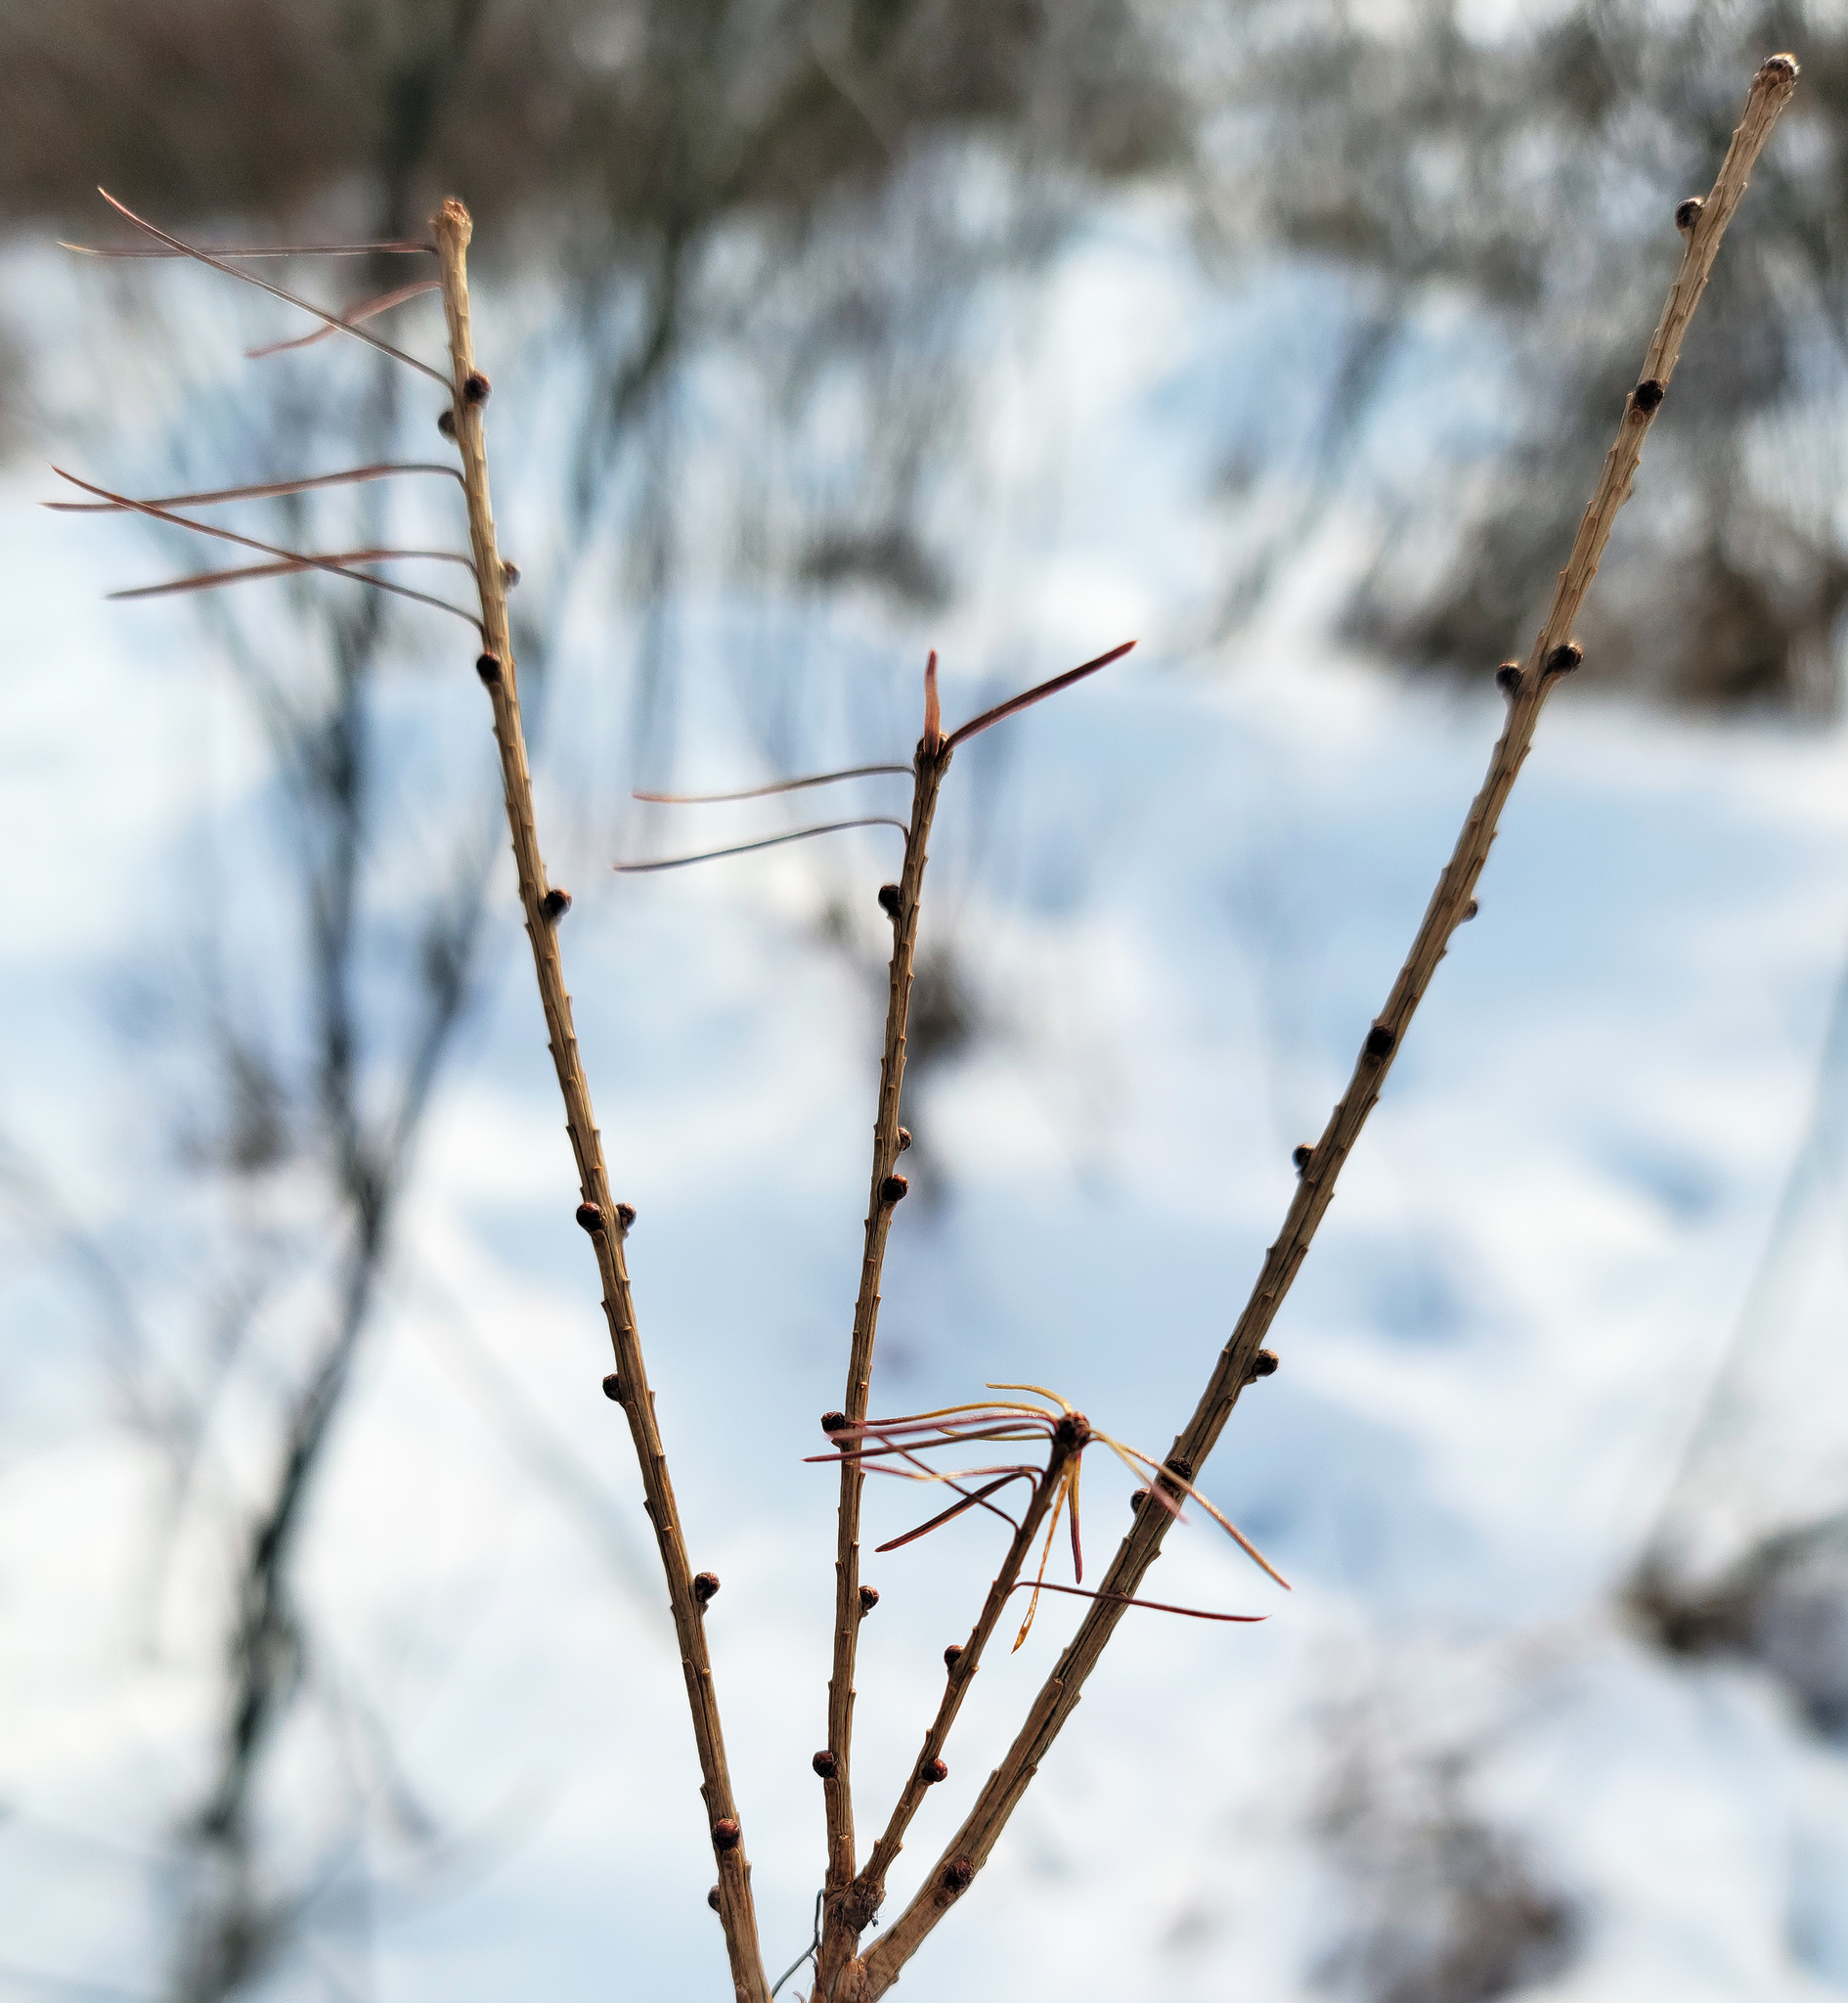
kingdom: Plantae
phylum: Tracheophyta
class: Pinopsida
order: Pinales
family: Pinaceae
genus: Larix
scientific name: Larix laricina
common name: American larch
